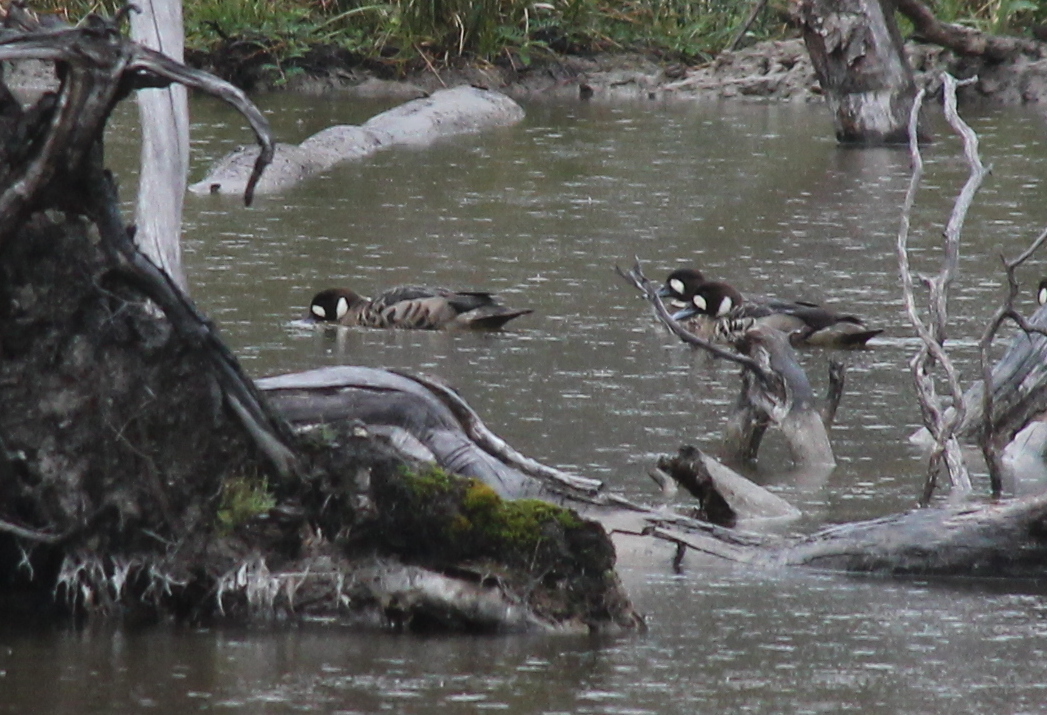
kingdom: Animalia
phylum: Chordata
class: Aves
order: Anseriformes
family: Anatidae
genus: Speculanas
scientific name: Speculanas specularis
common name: Bronze-winged duck
